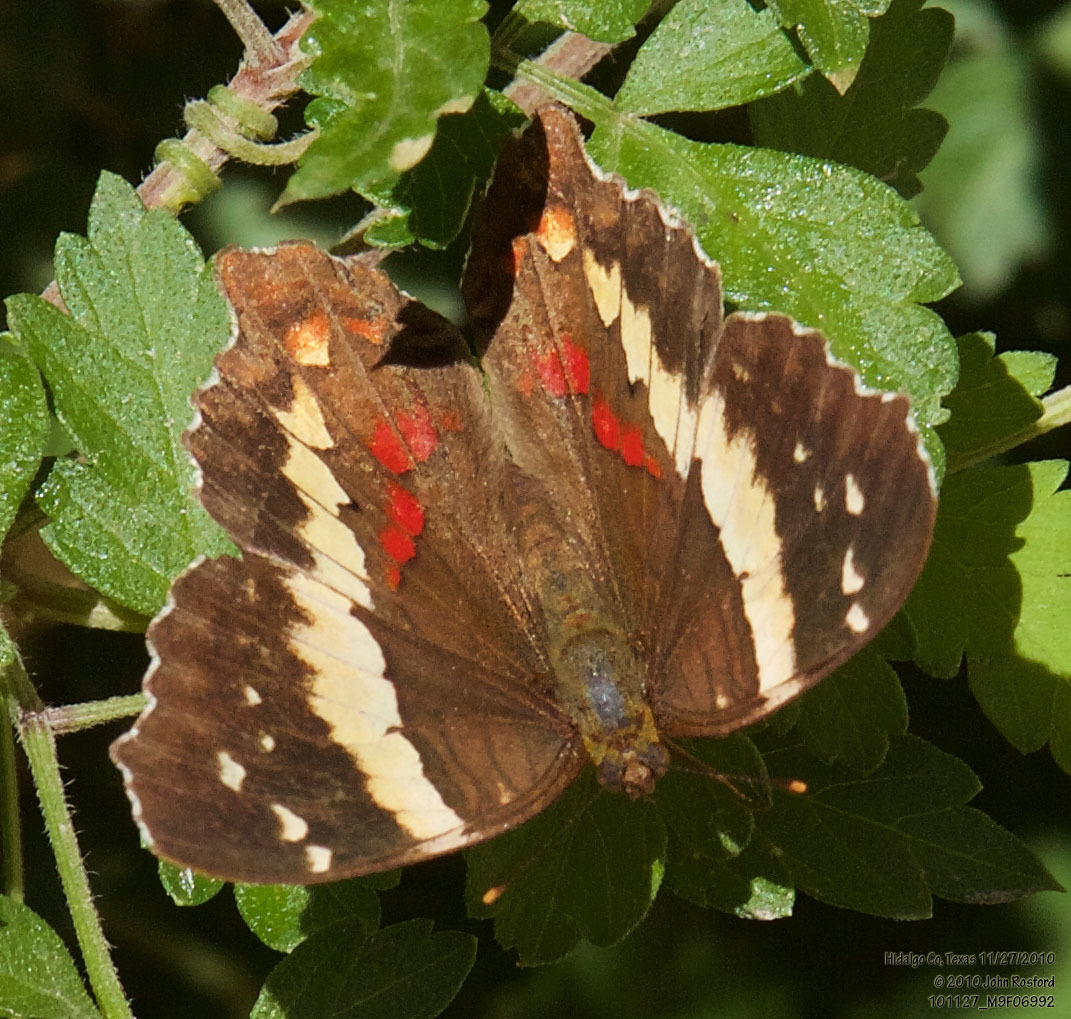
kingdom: Animalia
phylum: Arthropoda
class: Insecta
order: Lepidoptera
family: Nymphalidae
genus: Anartia
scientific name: Anartia fatima
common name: Banded peacock
